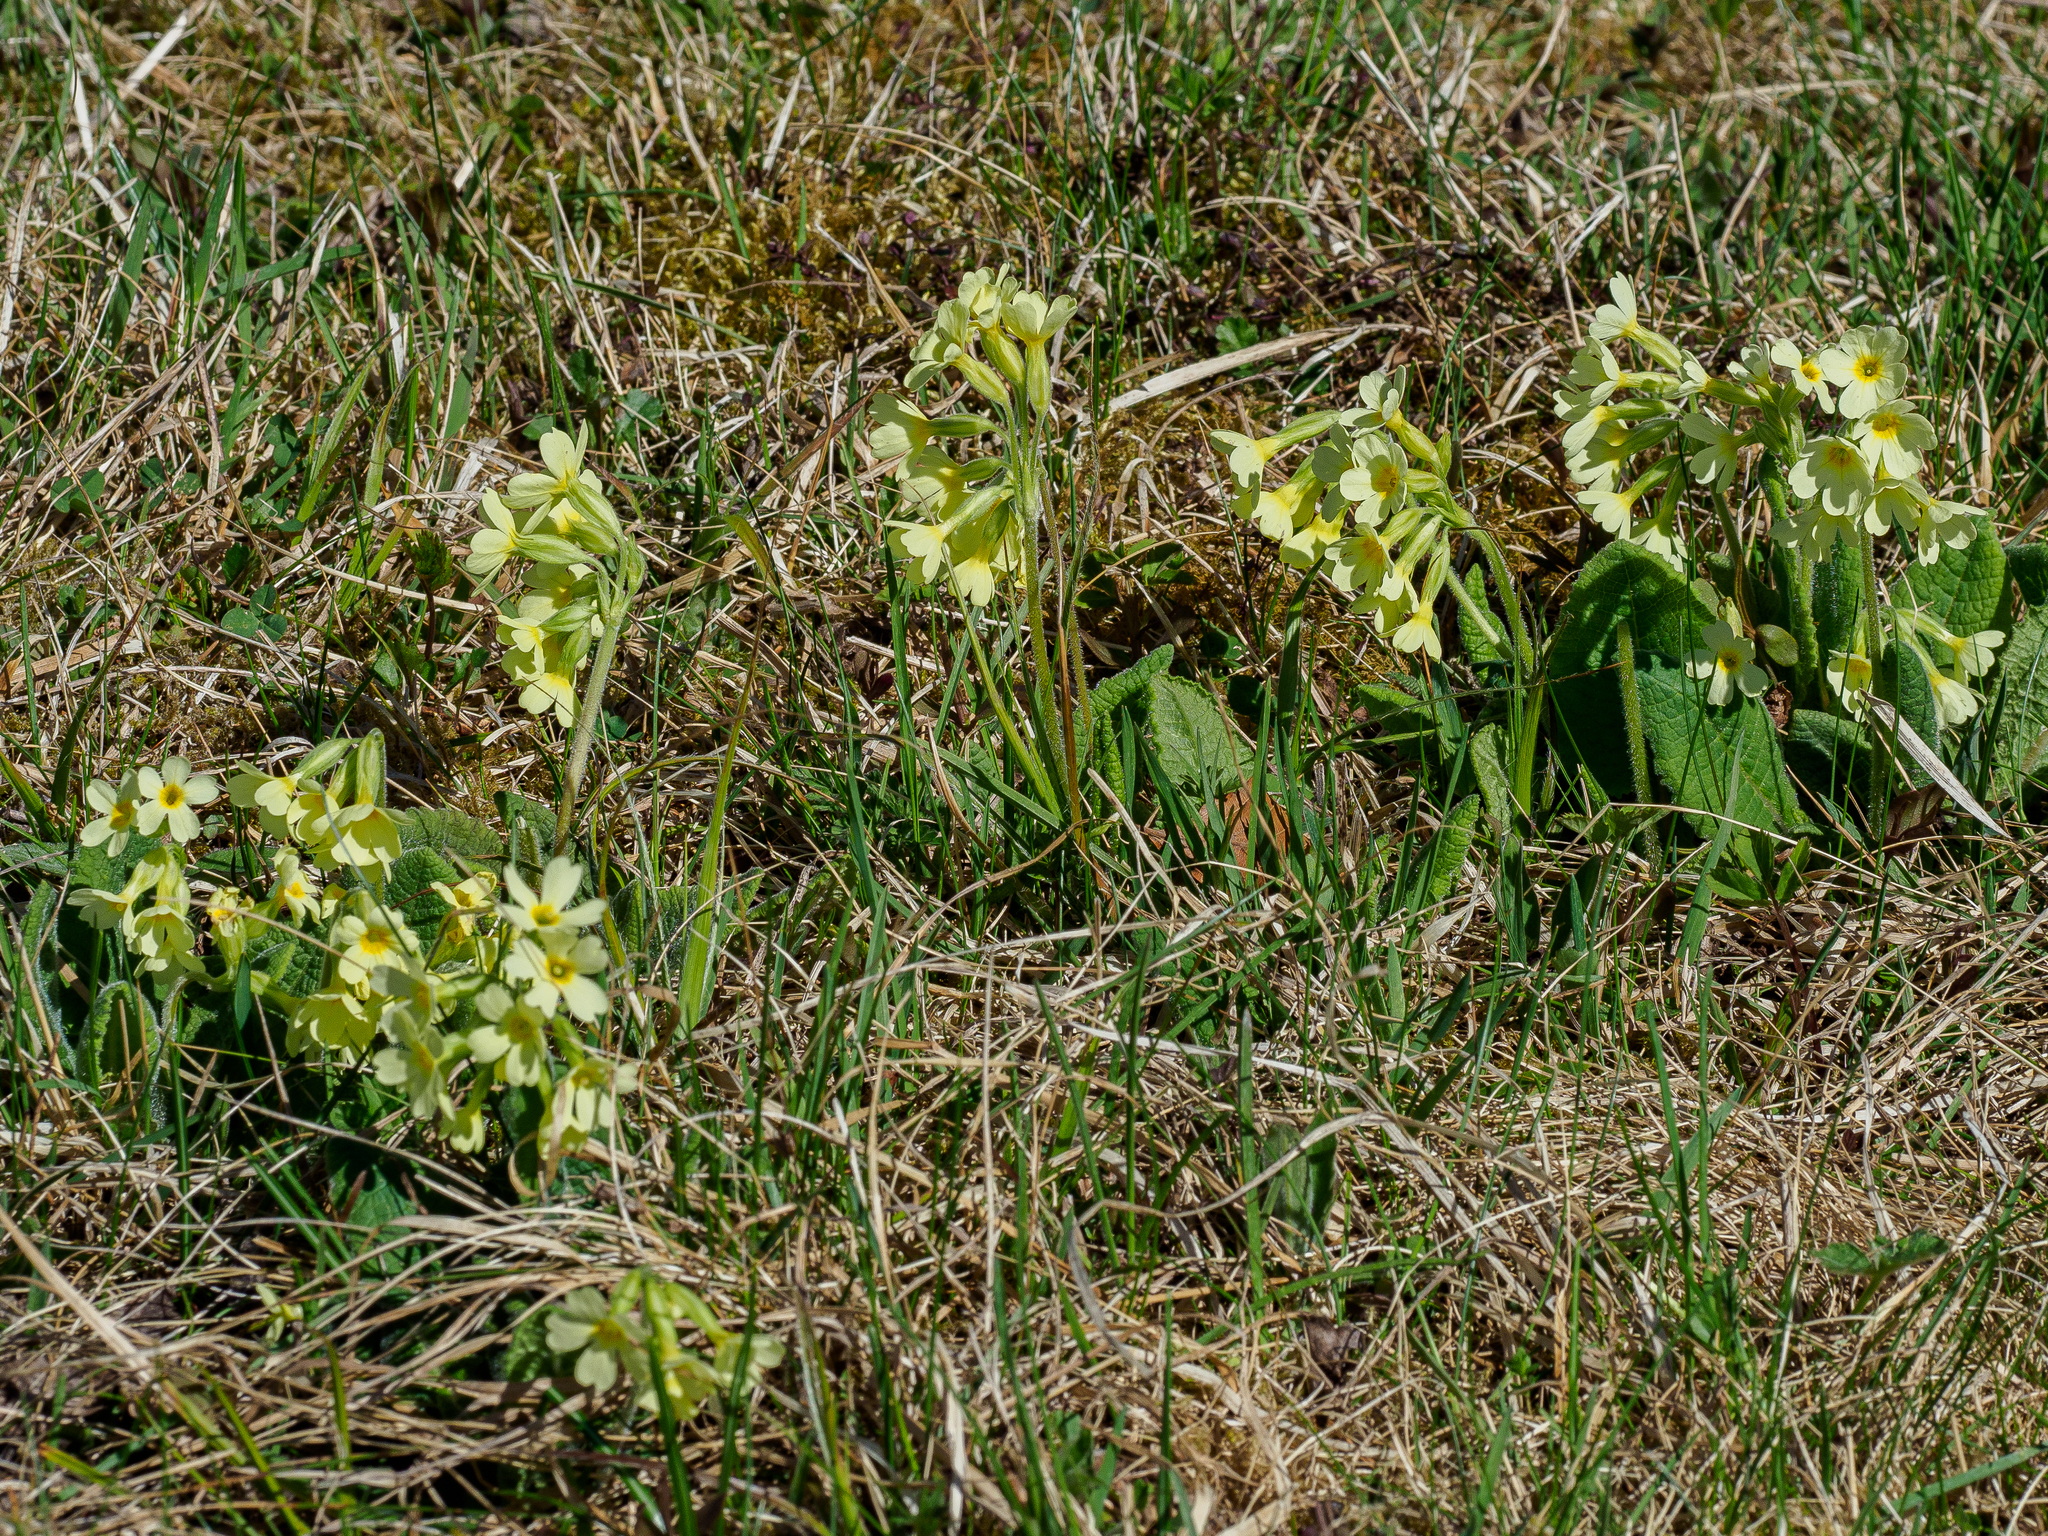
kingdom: Plantae
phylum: Tracheophyta
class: Magnoliopsida
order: Ericales
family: Primulaceae
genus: Primula
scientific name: Primula elatior
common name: Oxlip
